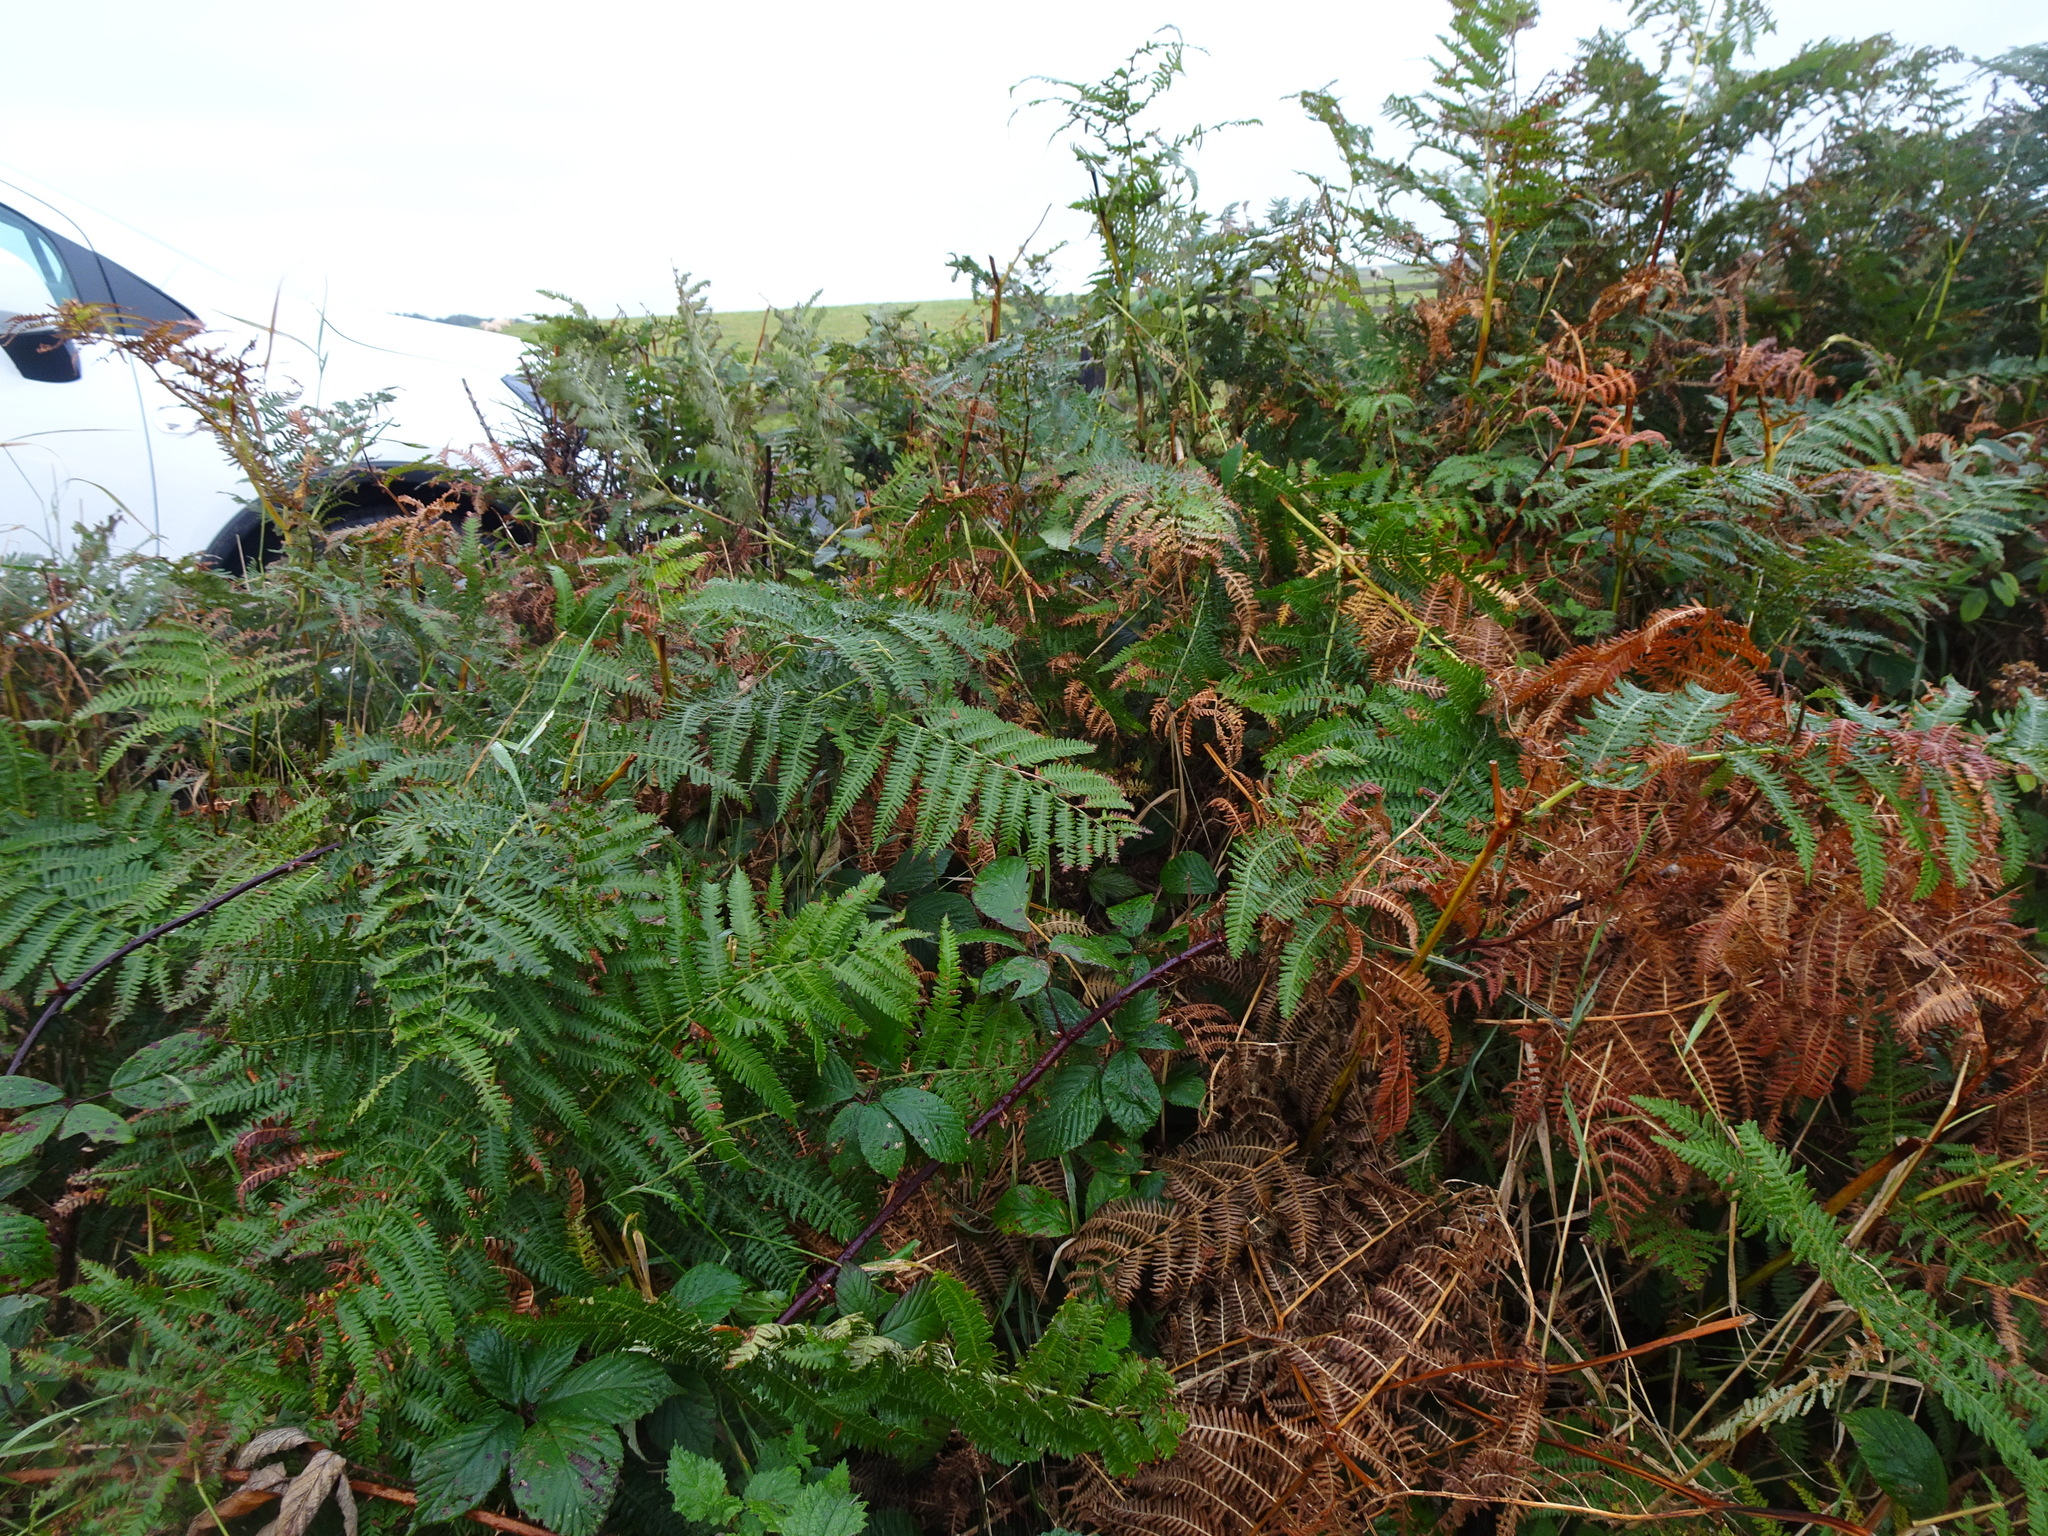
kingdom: Plantae
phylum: Tracheophyta
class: Polypodiopsida
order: Polypodiales
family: Dennstaedtiaceae
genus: Pteridium
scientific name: Pteridium aquilinum
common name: Bracken
